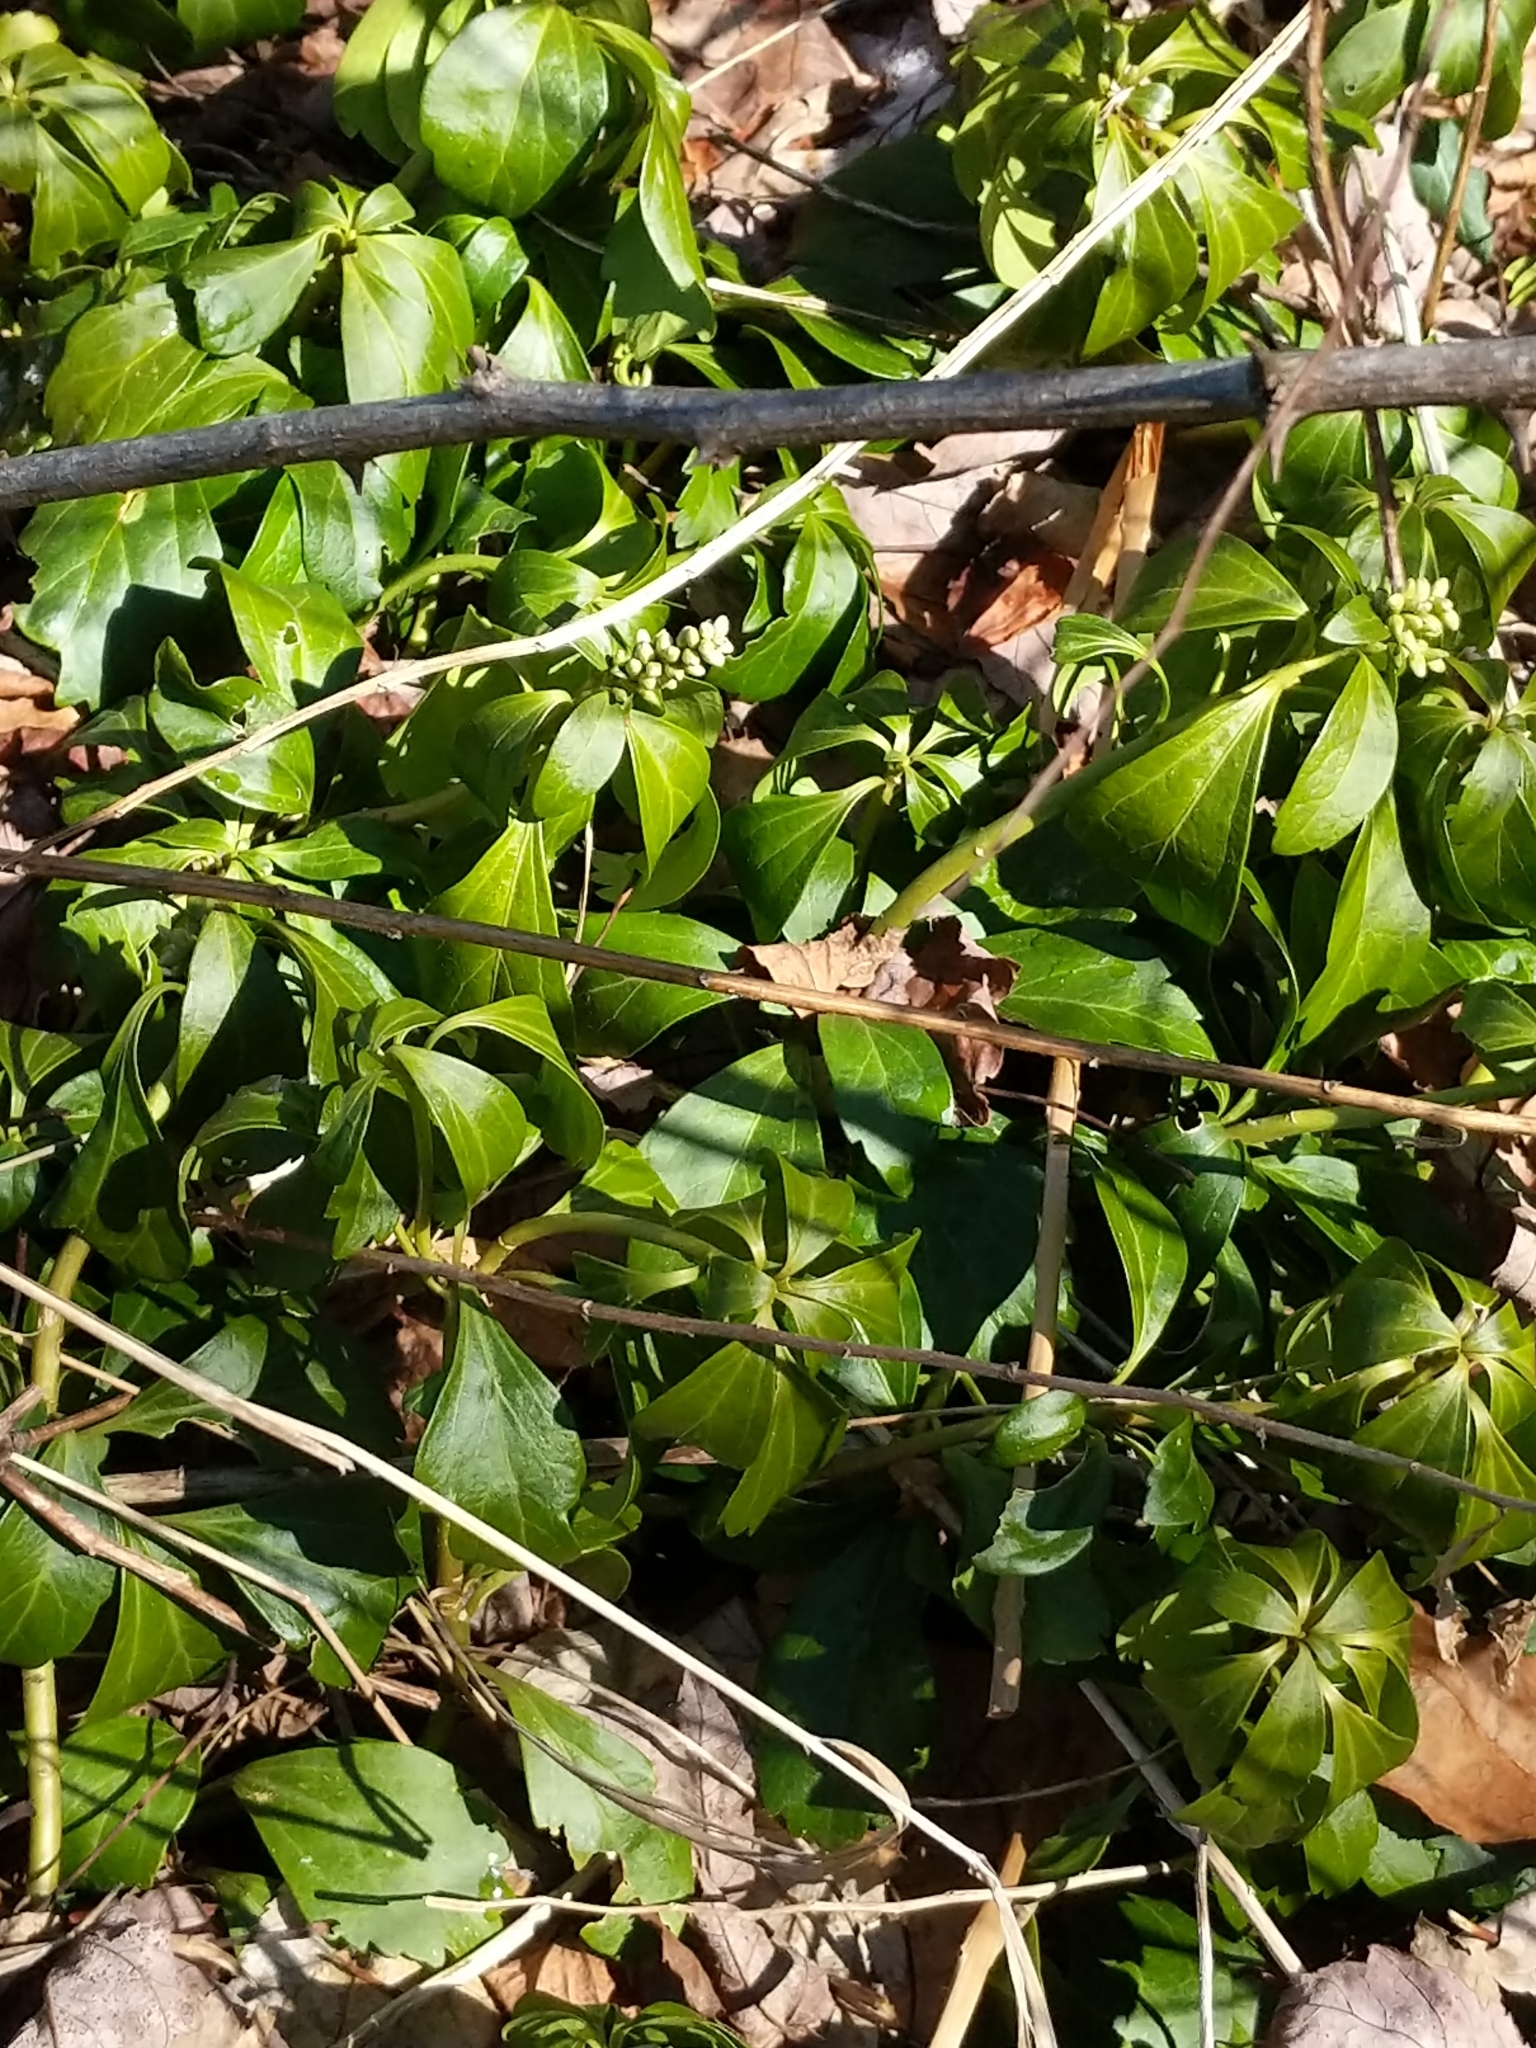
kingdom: Plantae
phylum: Tracheophyta
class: Magnoliopsida
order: Buxales
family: Buxaceae
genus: Pachysandra
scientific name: Pachysandra terminalis
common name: Japanese pachysandra
